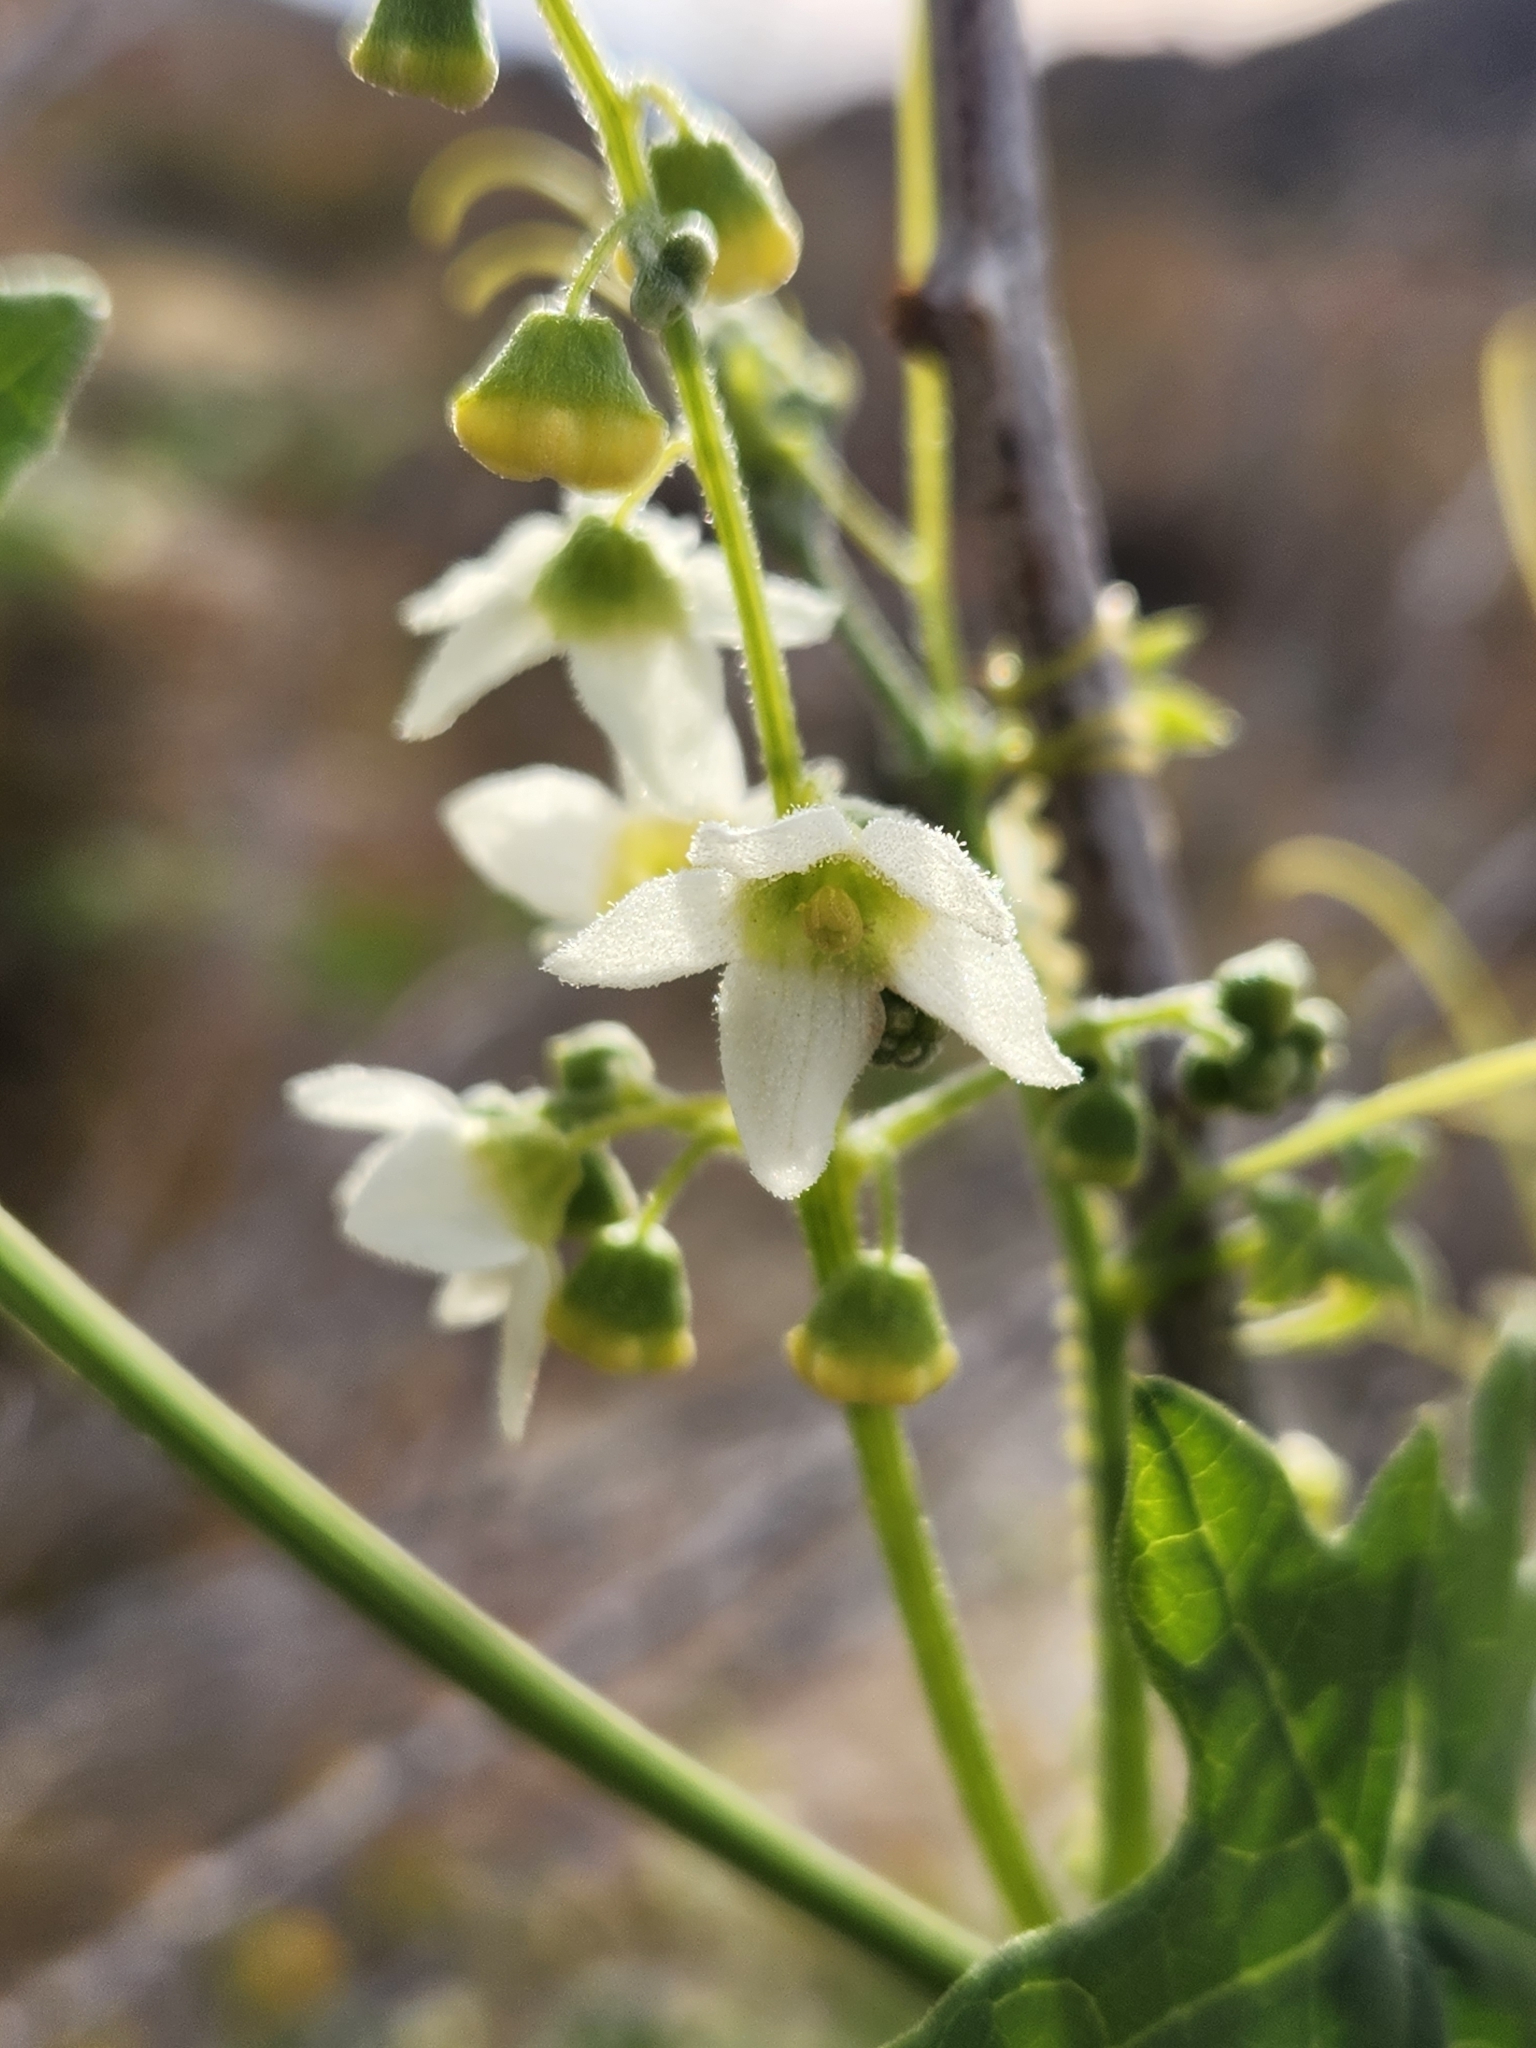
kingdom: Plantae
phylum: Tracheophyta
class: Magnoliopsida
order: Cucurbitales
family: Cucurbitaceae
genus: Marah
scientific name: Marah macrocarpa
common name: Cucamonga manroot
